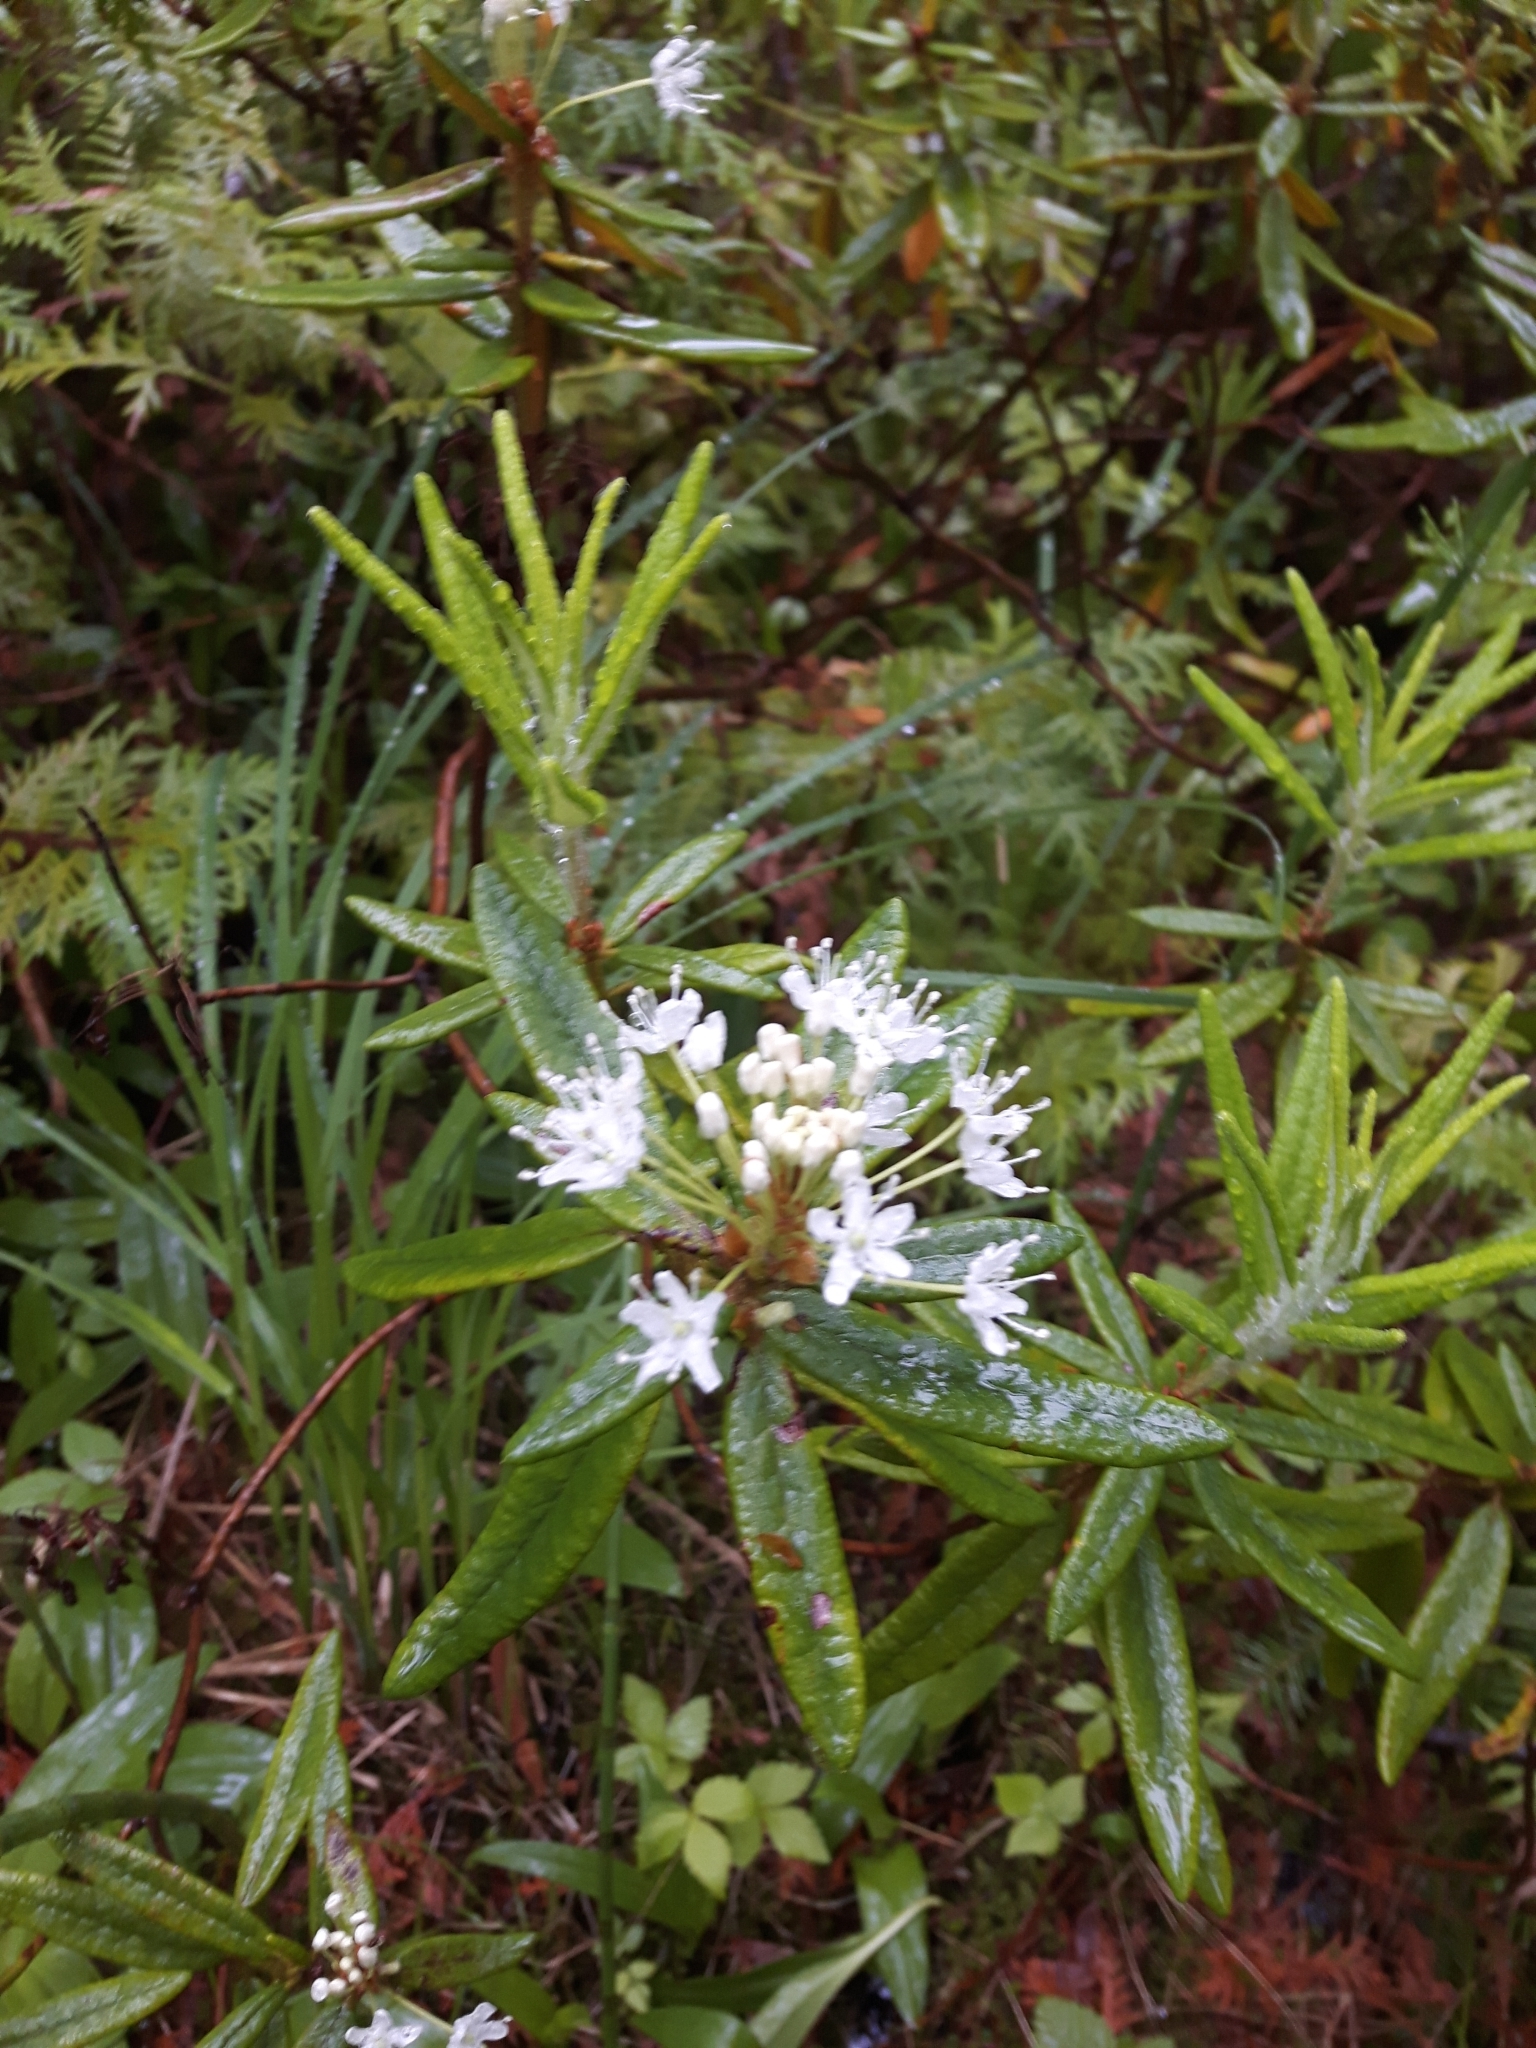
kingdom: Plantae
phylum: Tracheophyta
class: Magnoliopsida
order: Ericales
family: Ericaceae
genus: Rhododendron
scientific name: Rhododendron groenlandicum
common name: Bog labrador tea
